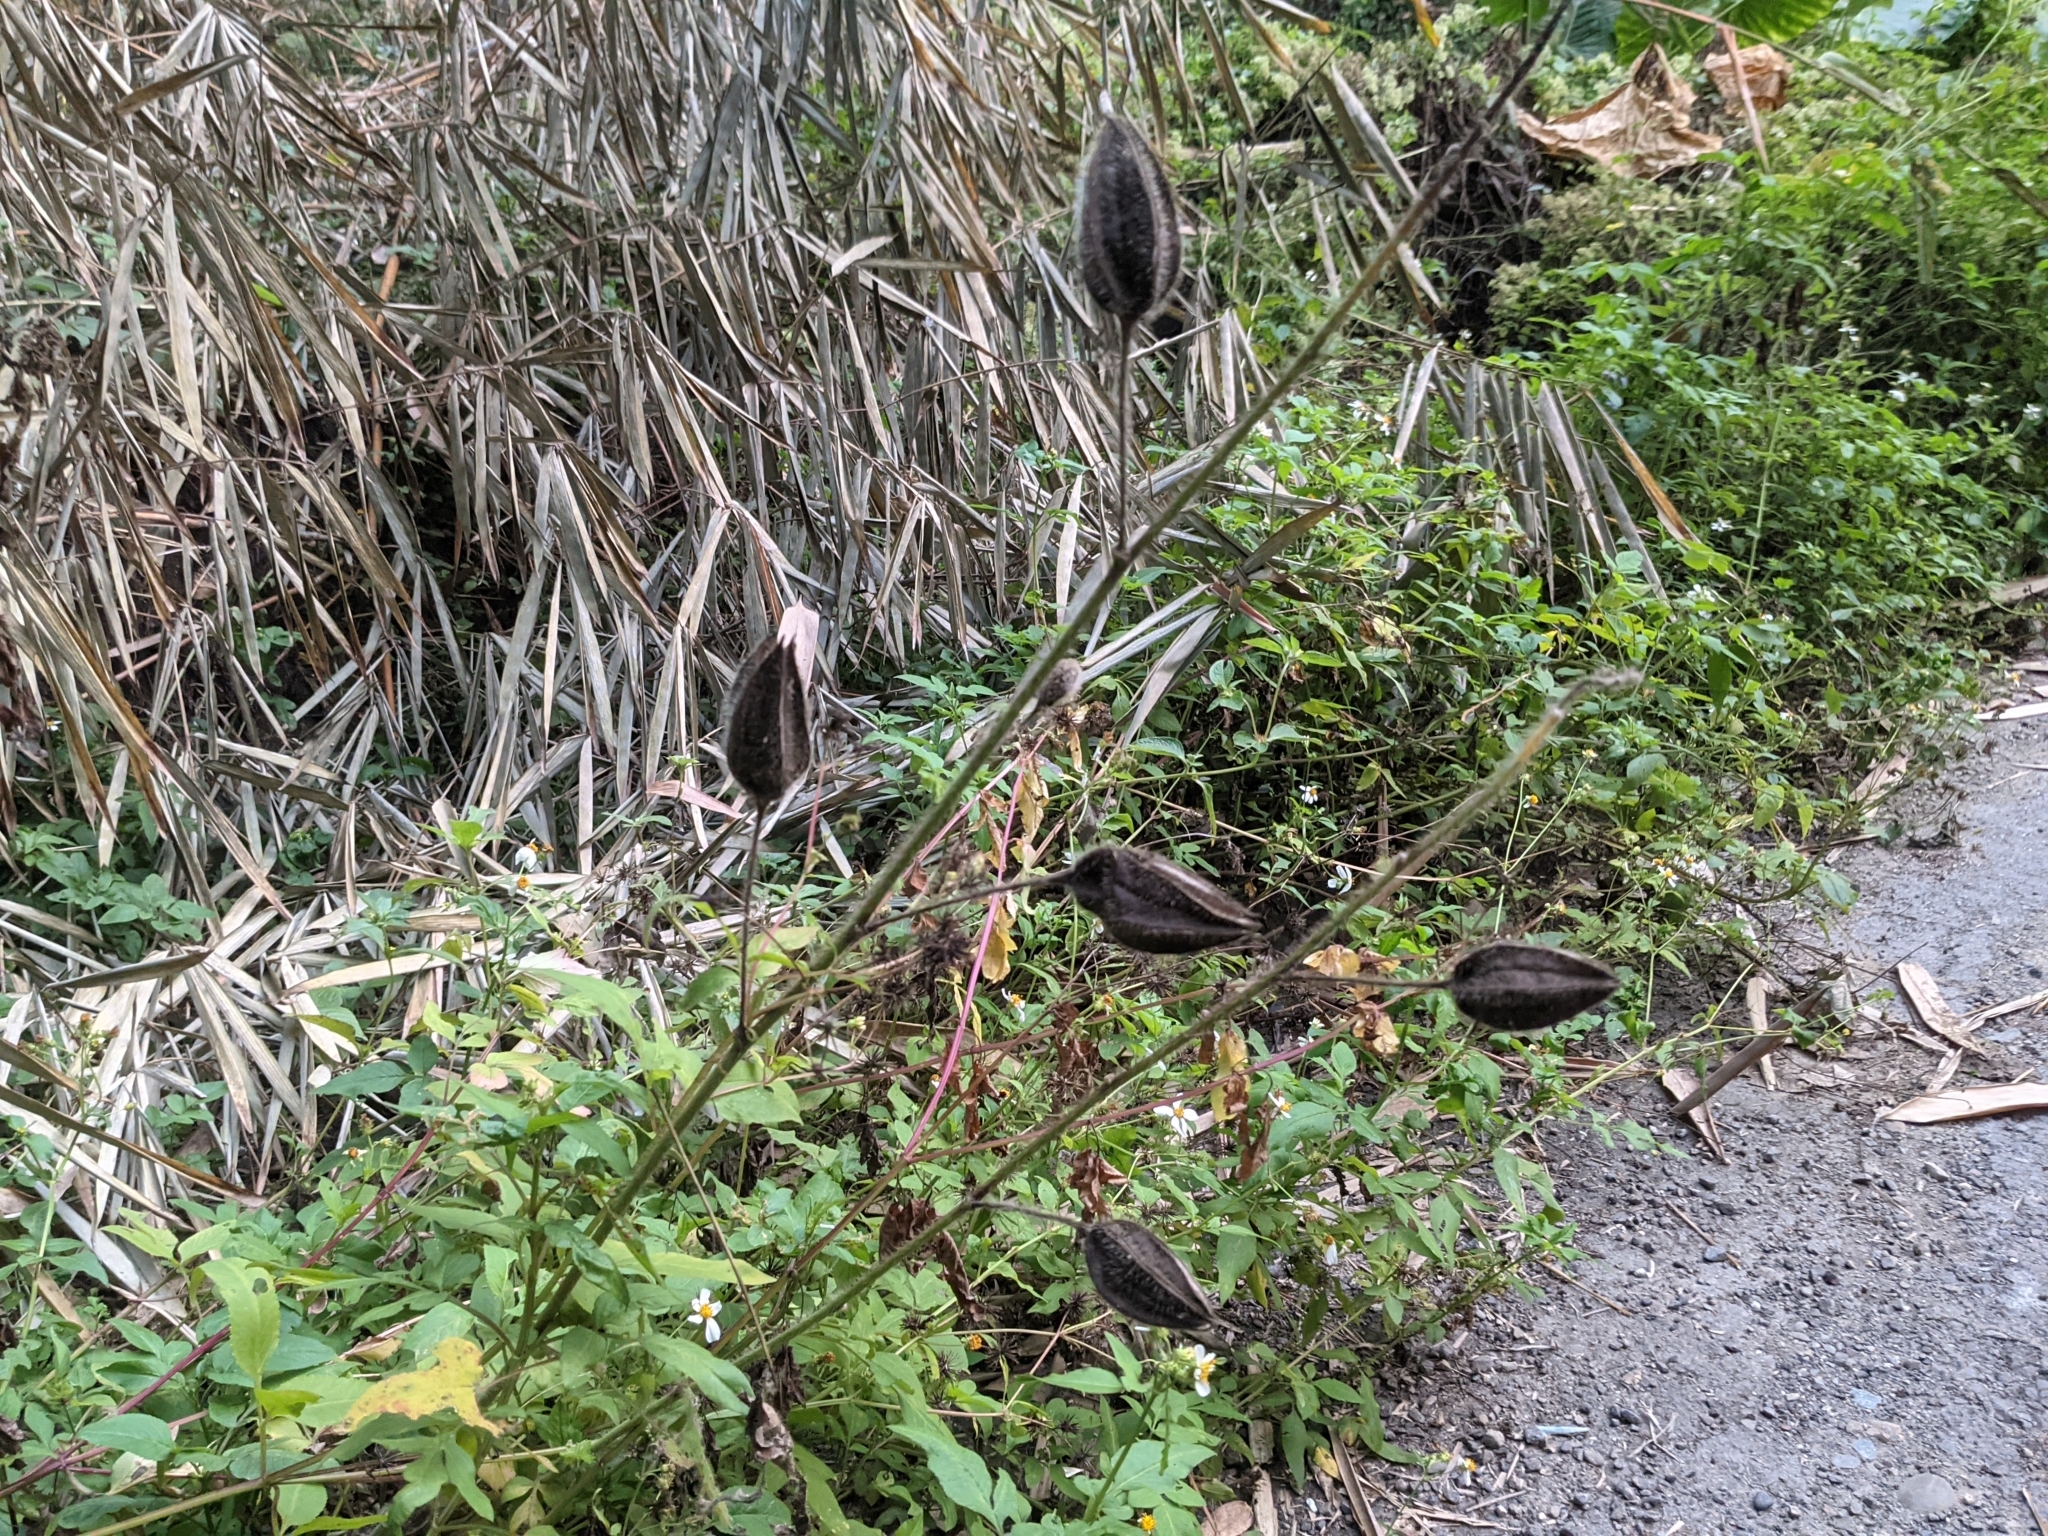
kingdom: Plantae
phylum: Tracheophyta
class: Magnoliopsida
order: Malvales
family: Malvaceae
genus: Abelmoschus
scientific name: Abelmoschus moschatus
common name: Musk okra
